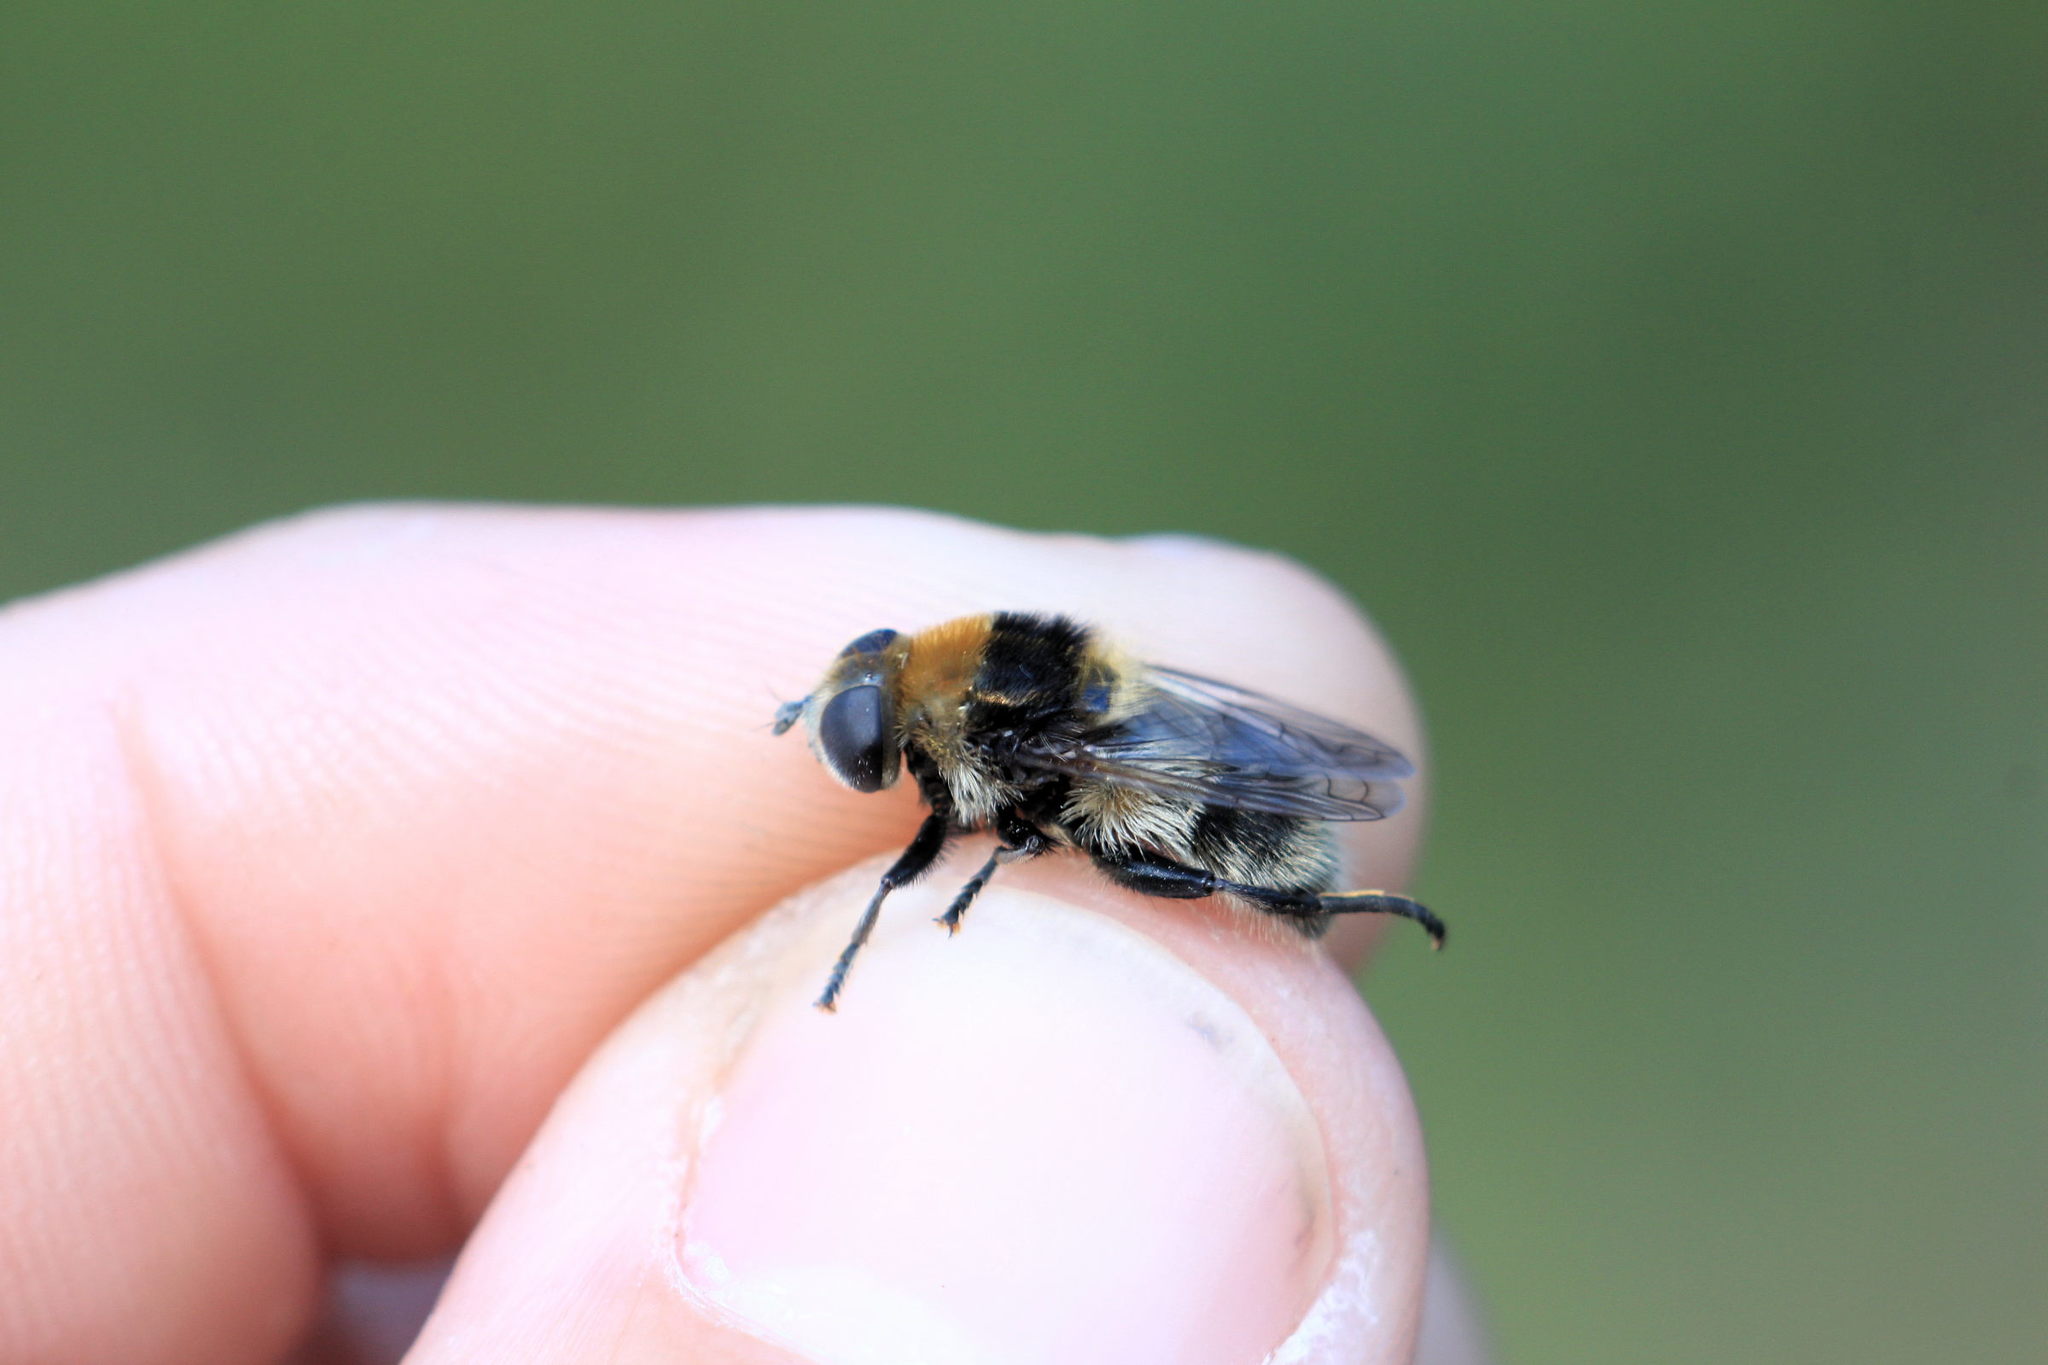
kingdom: Animalia
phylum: Arthropoda
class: Insecta
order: Diptera
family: Syrphidae
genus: Merodon
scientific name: Merodon equestris
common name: Greater bulb-fly
